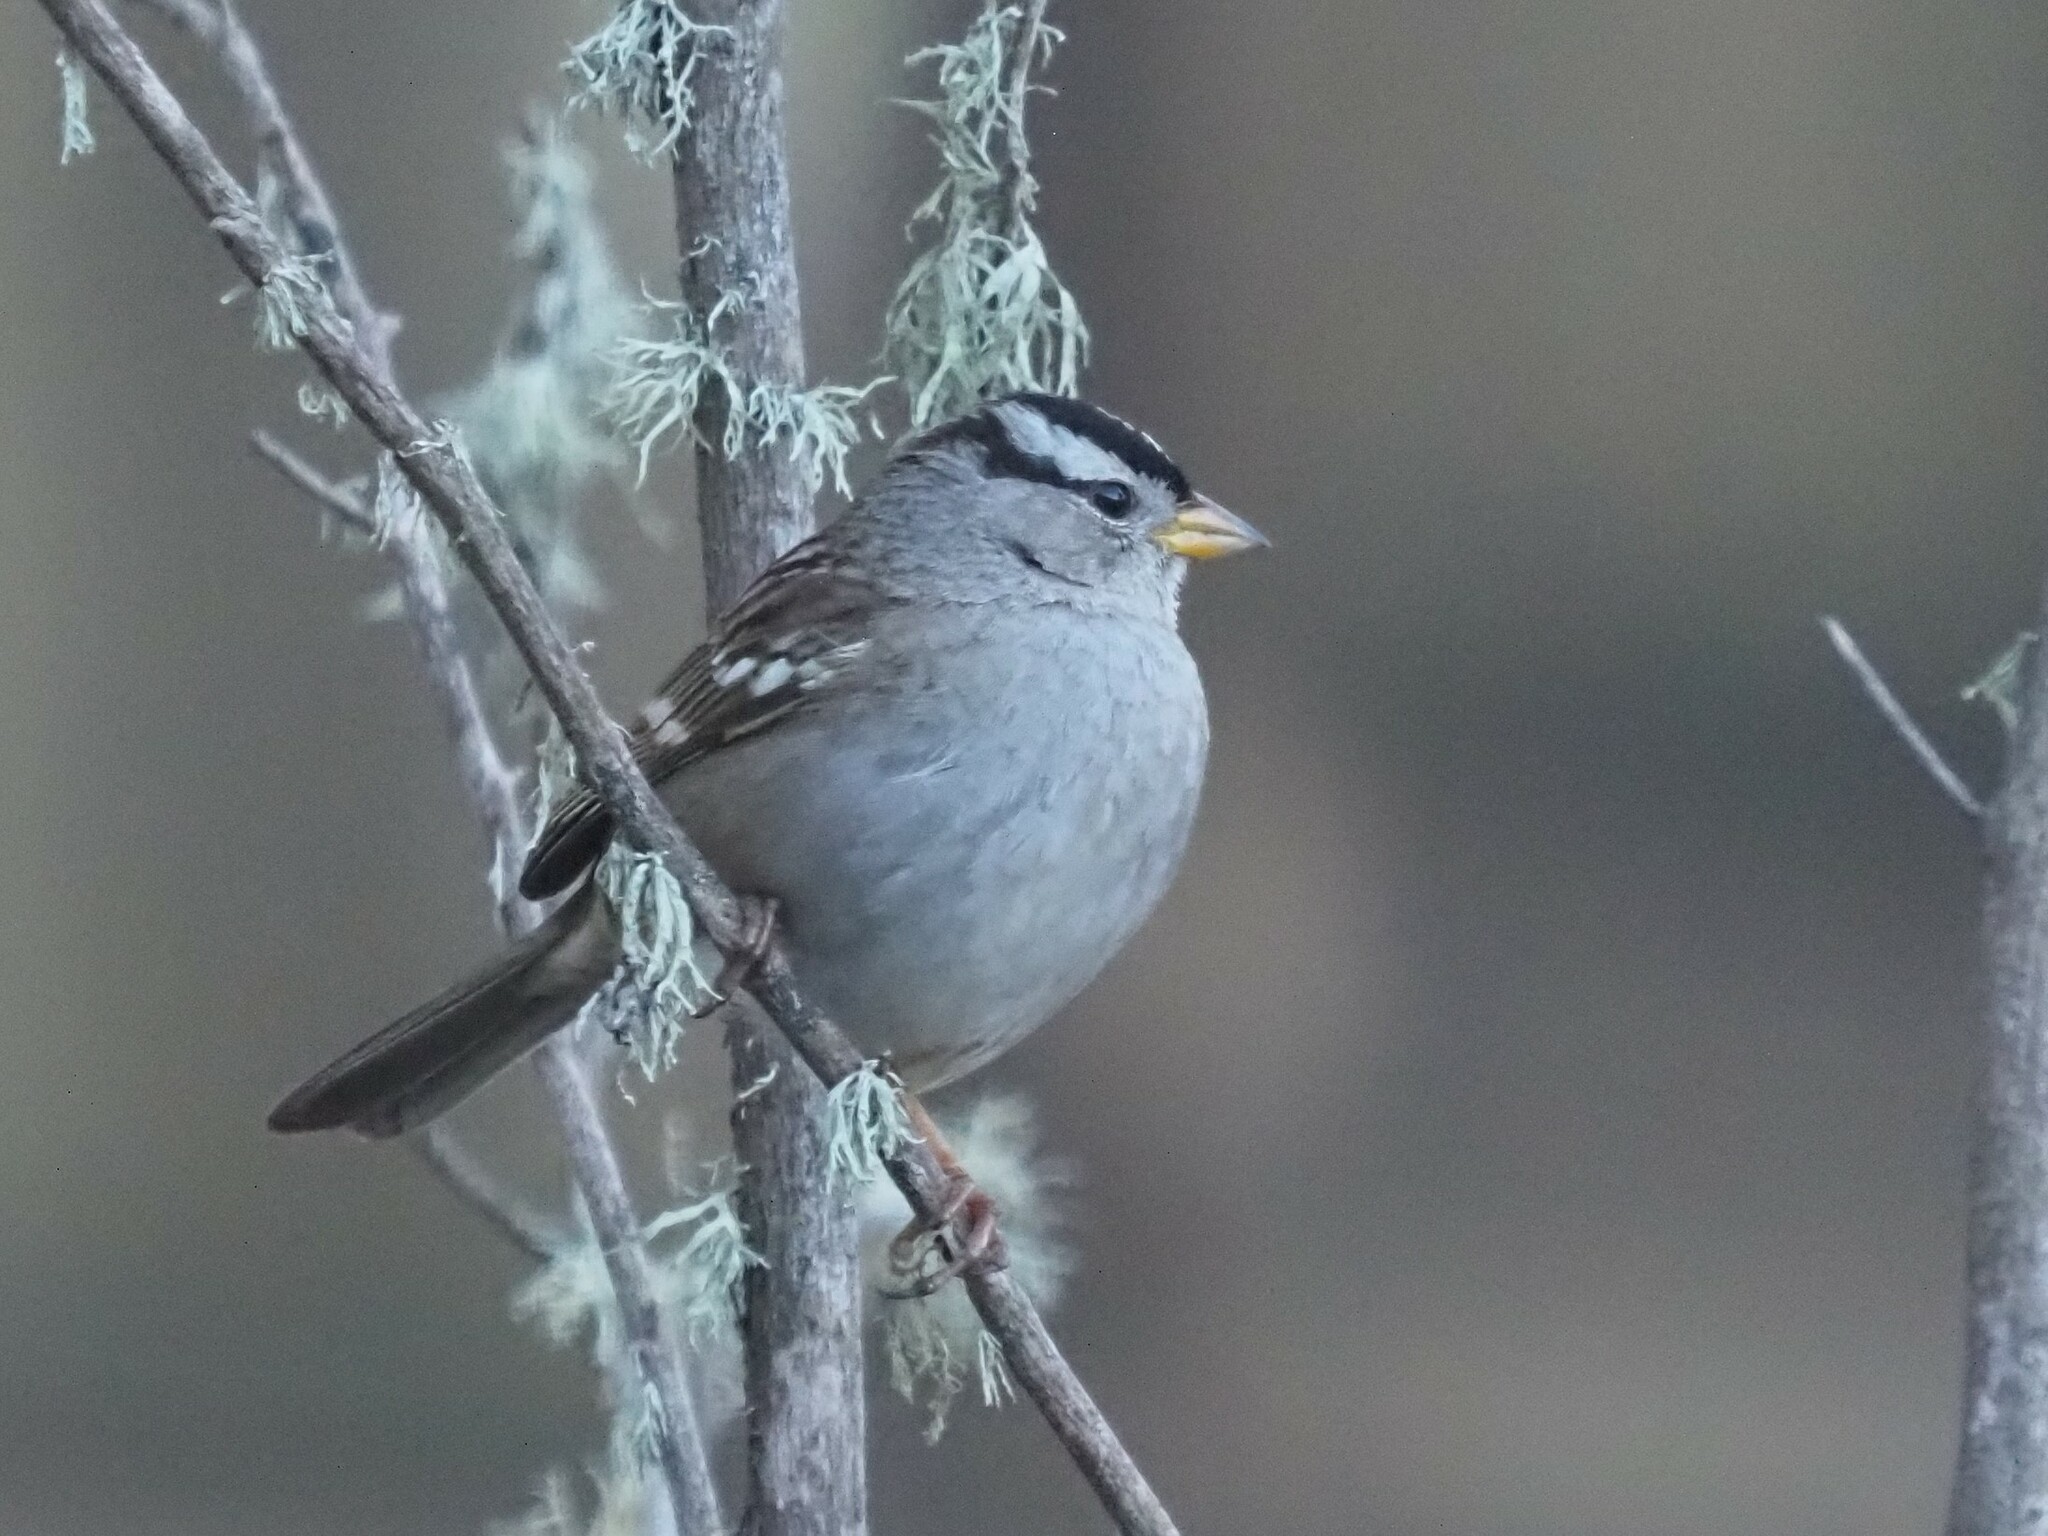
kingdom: Animalia
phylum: Chordata
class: Aves
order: Passeriformes
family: Passerellidae
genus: Zonotrichia
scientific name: Zonotrichia leucophrys
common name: White-crowned sparrow
